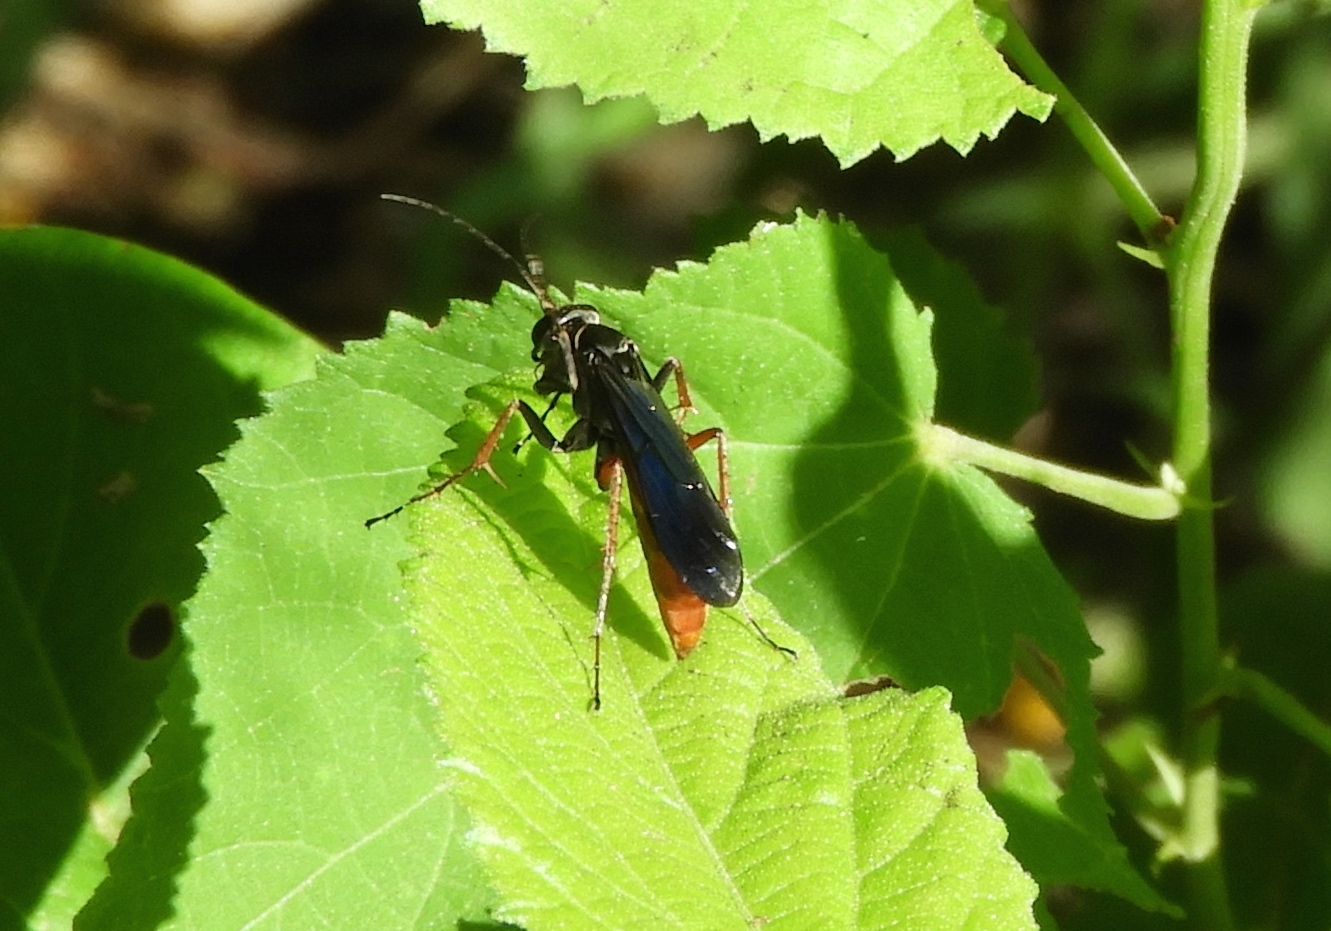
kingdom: Animalia
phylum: Arthropoda
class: Insecta
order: Hymenoptera
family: Pompilidae
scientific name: Pompilidae
